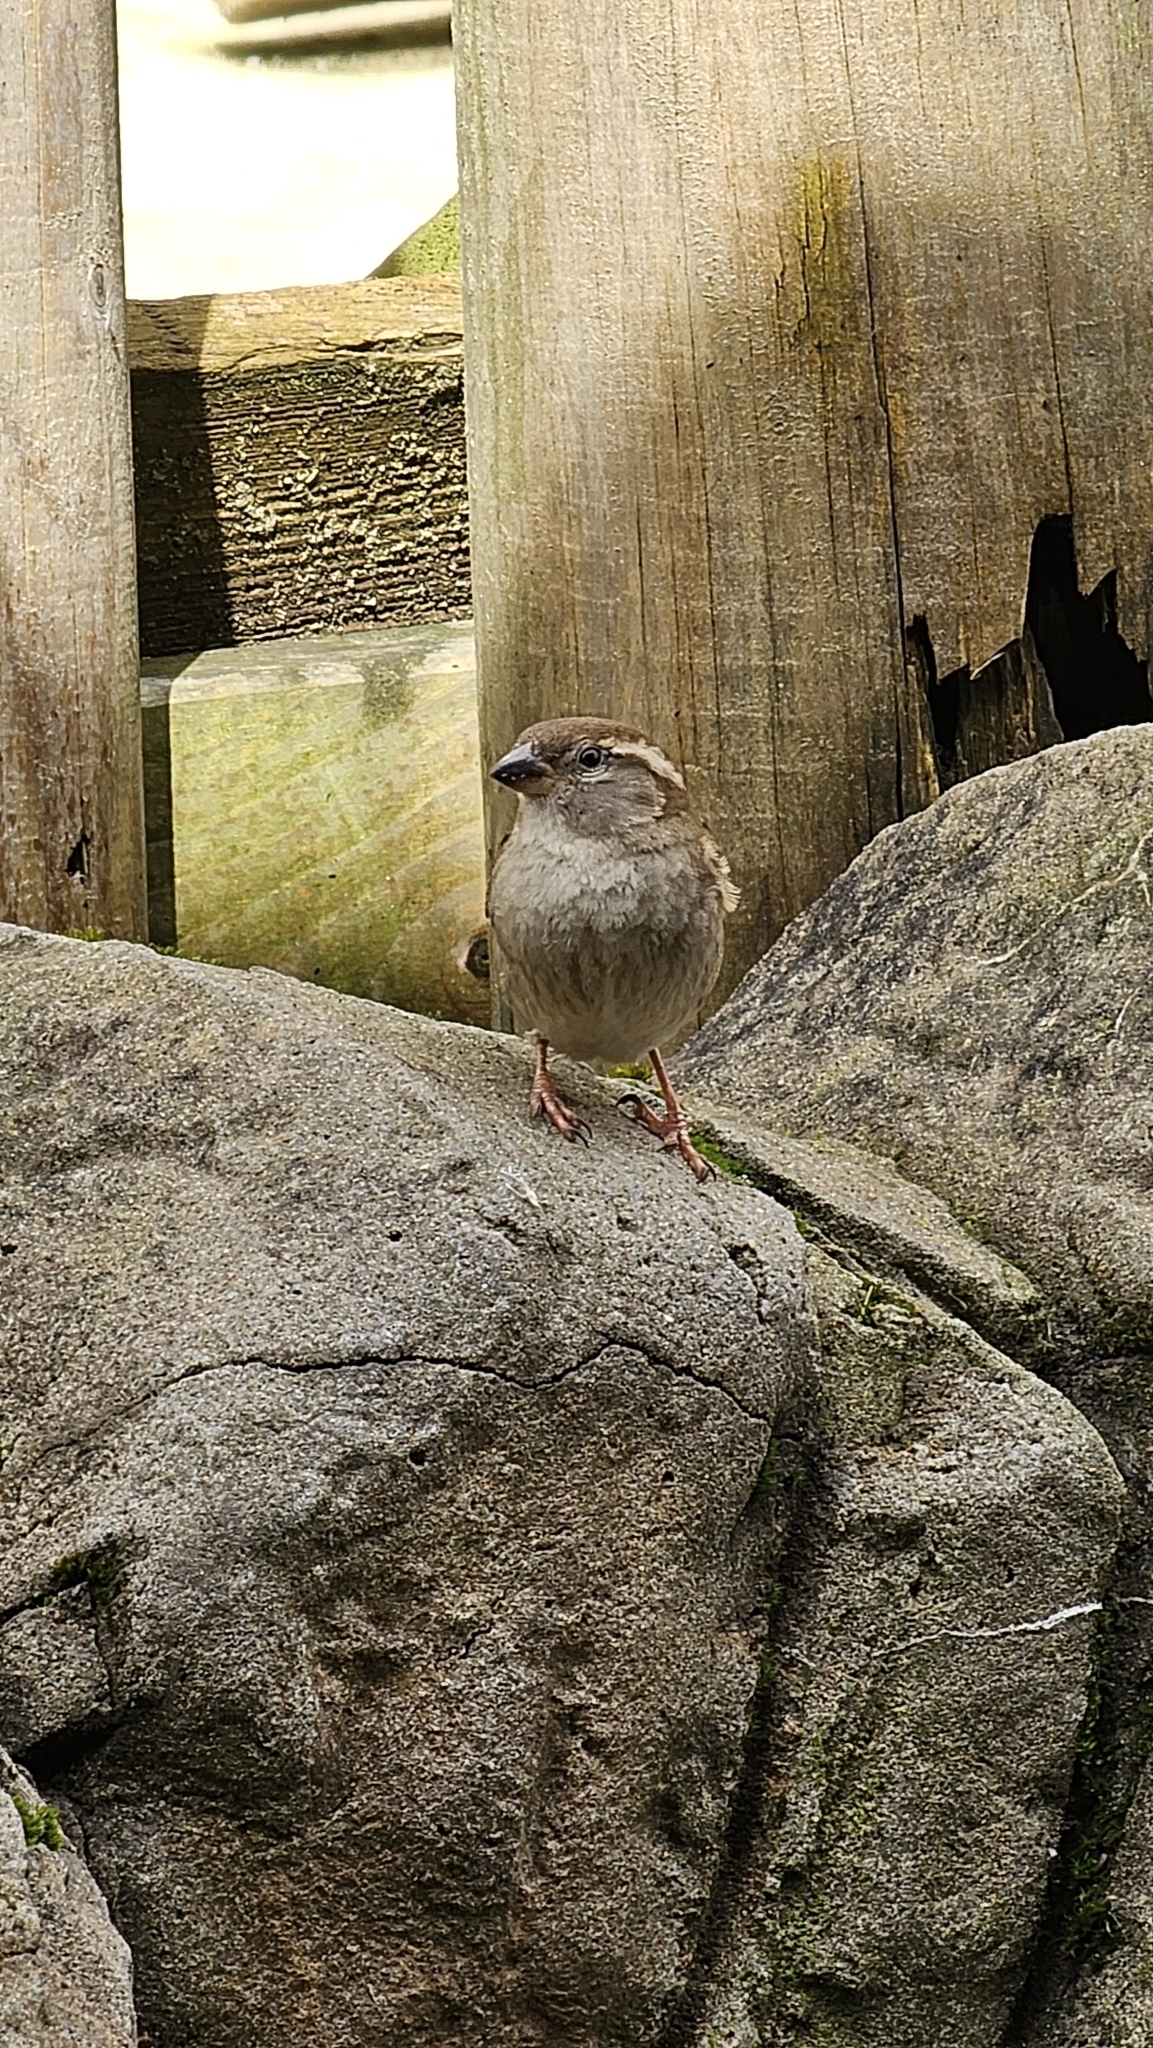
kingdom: Animalia
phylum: Chordata
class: Aves
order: Passeriformes
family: Passeridae
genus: Passer
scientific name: Passer domesticus
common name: House sparrow
